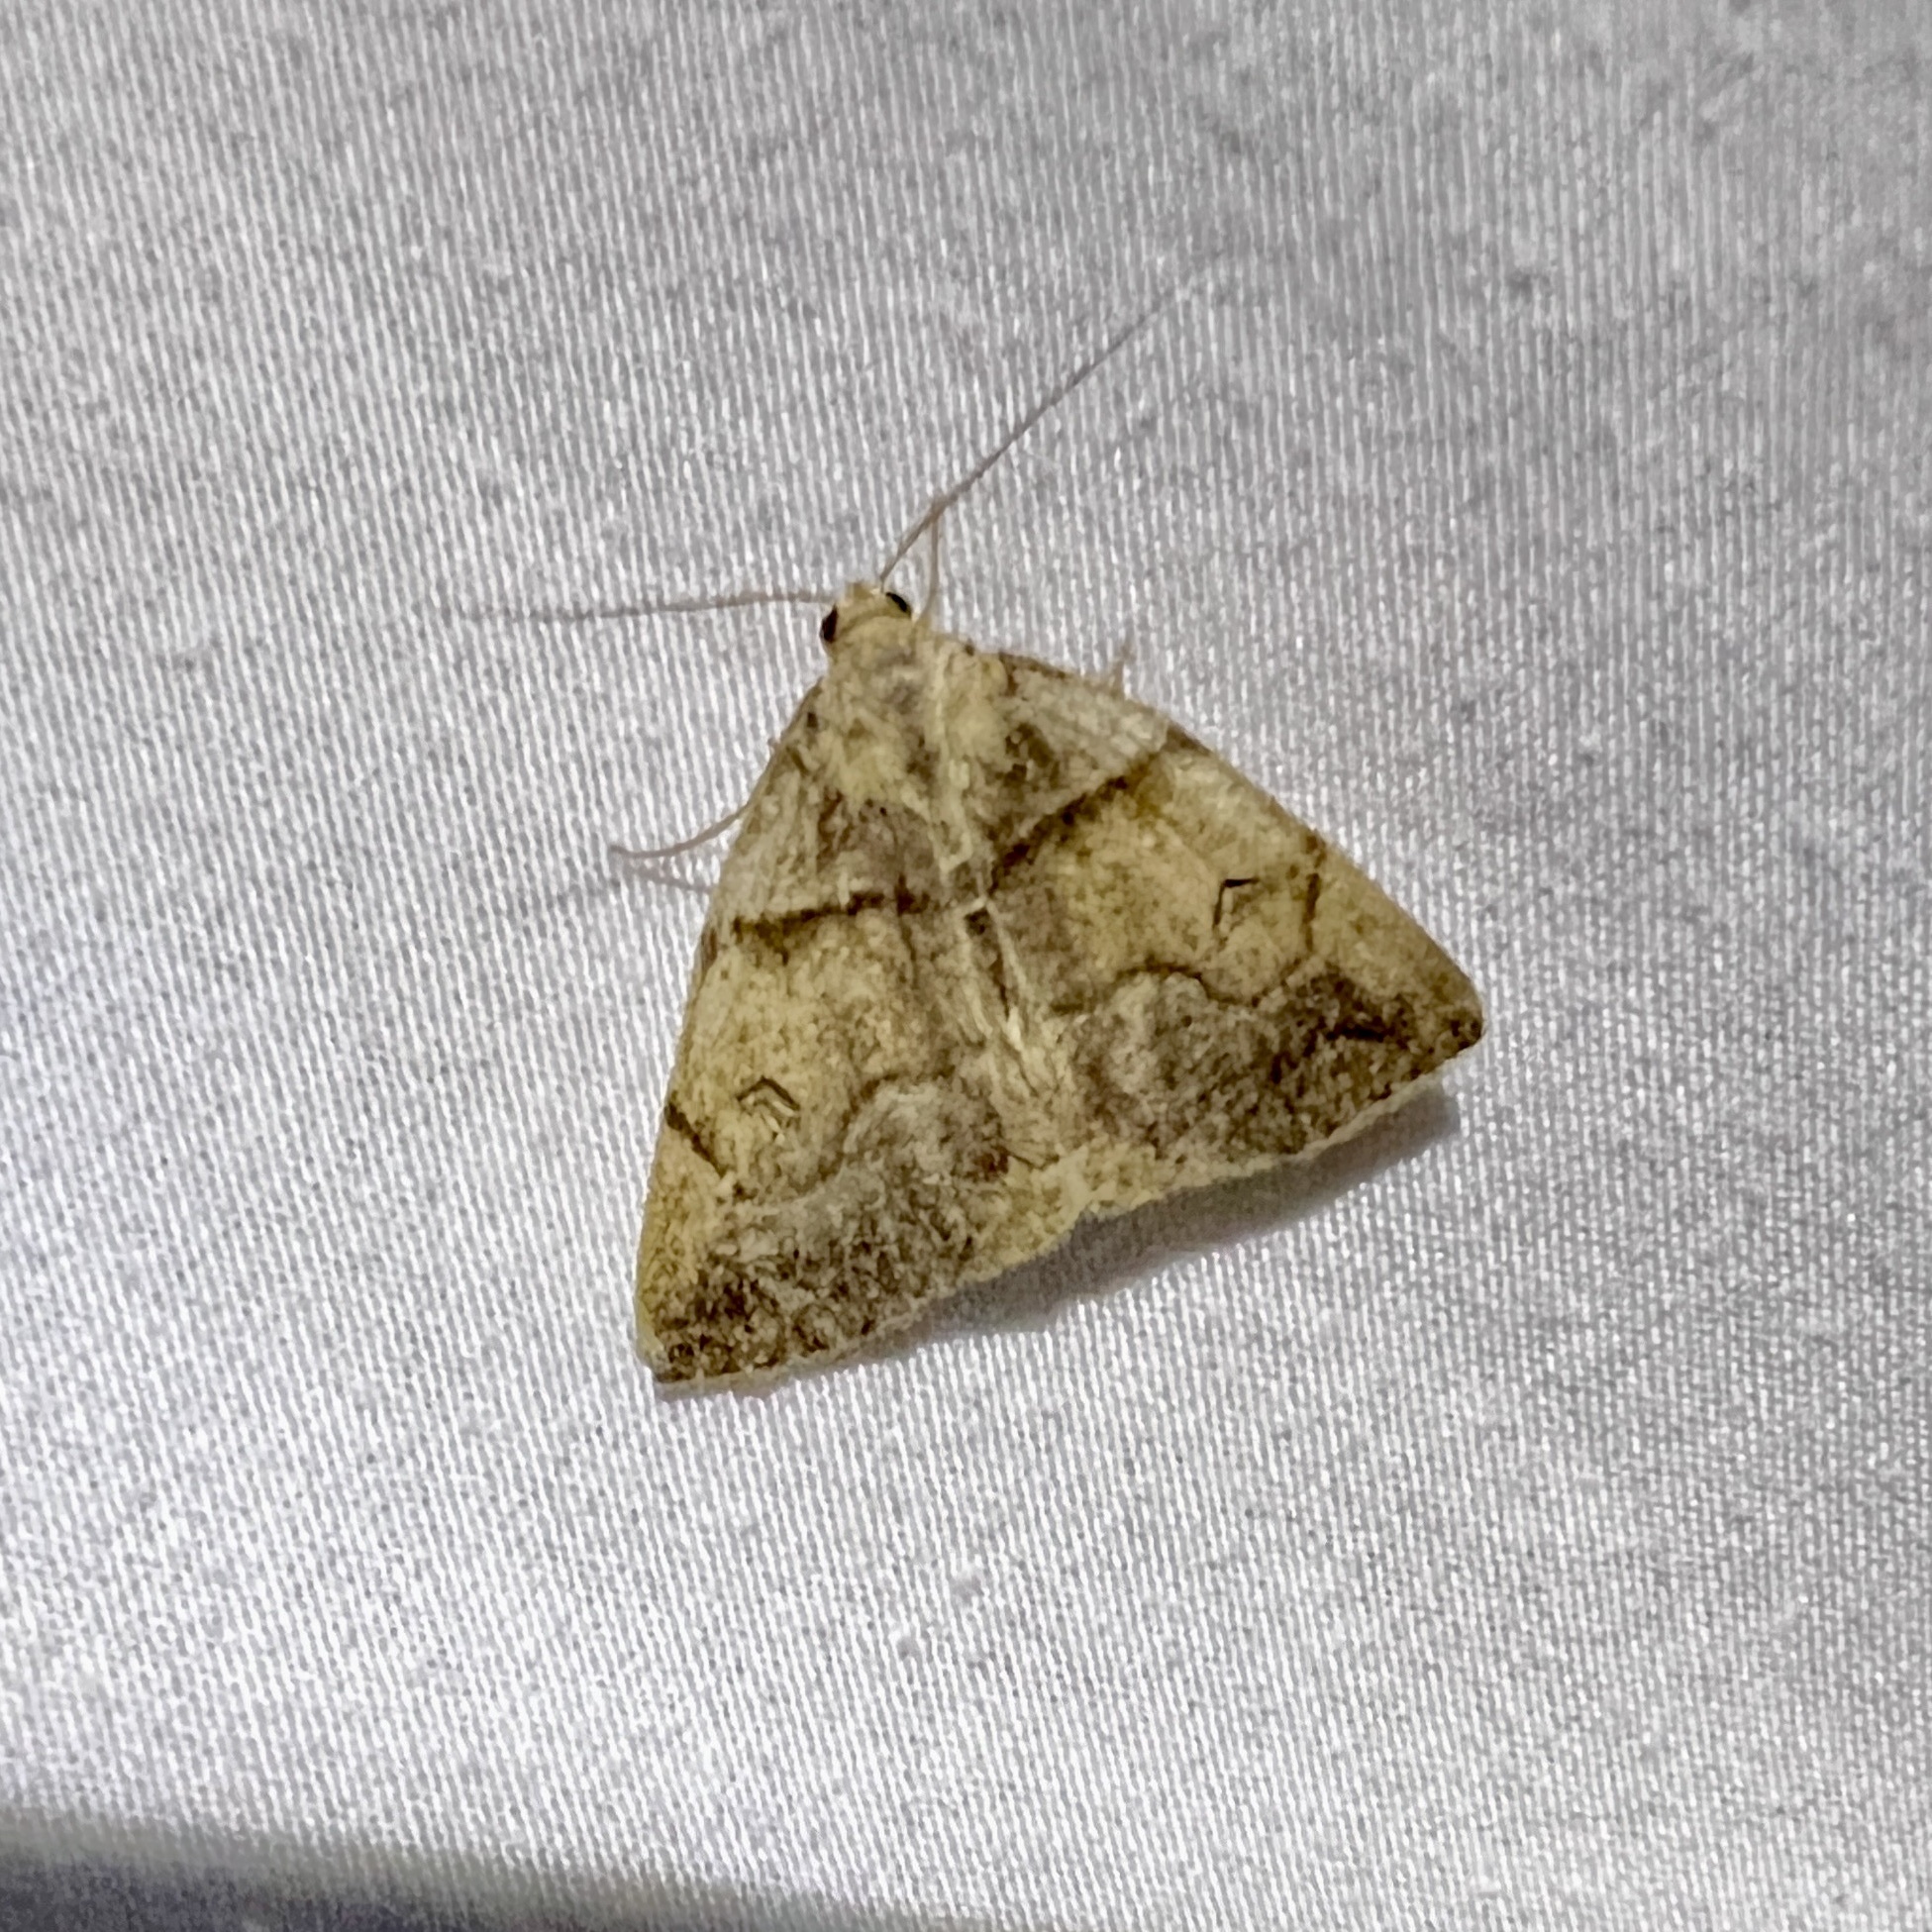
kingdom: Animalia
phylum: Arthropoda
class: Insecta
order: Lepidoptera
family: Erebidae
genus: Zanclognatha
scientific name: Zanclognatha laevigata
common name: Variable fan-foot
